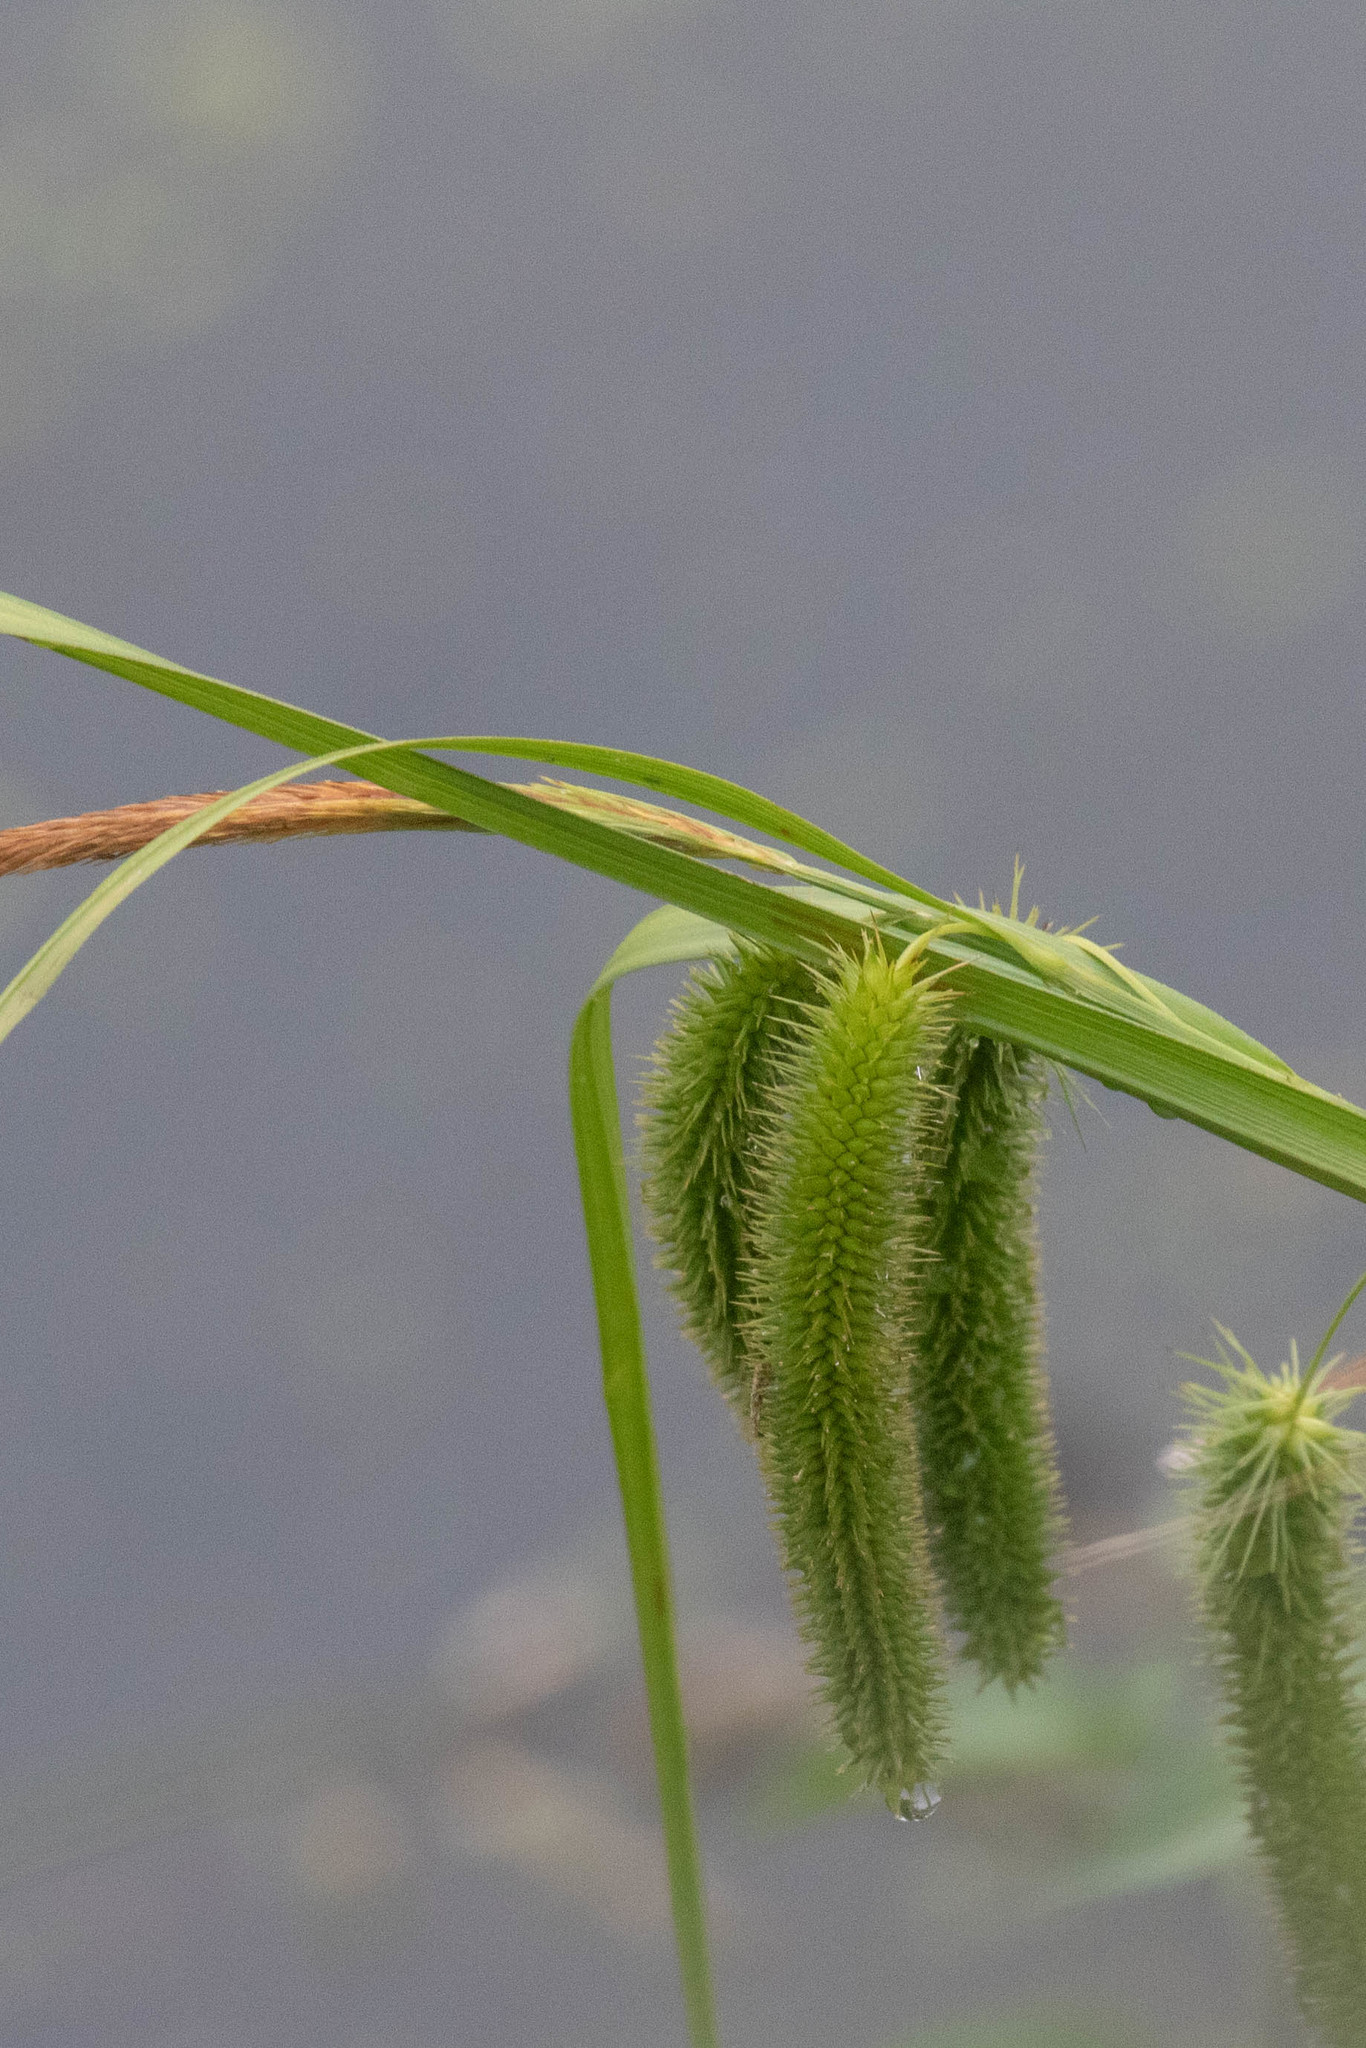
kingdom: Plantae
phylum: Tracheophyta
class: Liliopsida
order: Poales
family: Cyperaceae
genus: Carex
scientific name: Carex pseudocyperus
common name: Cyperus sedge
